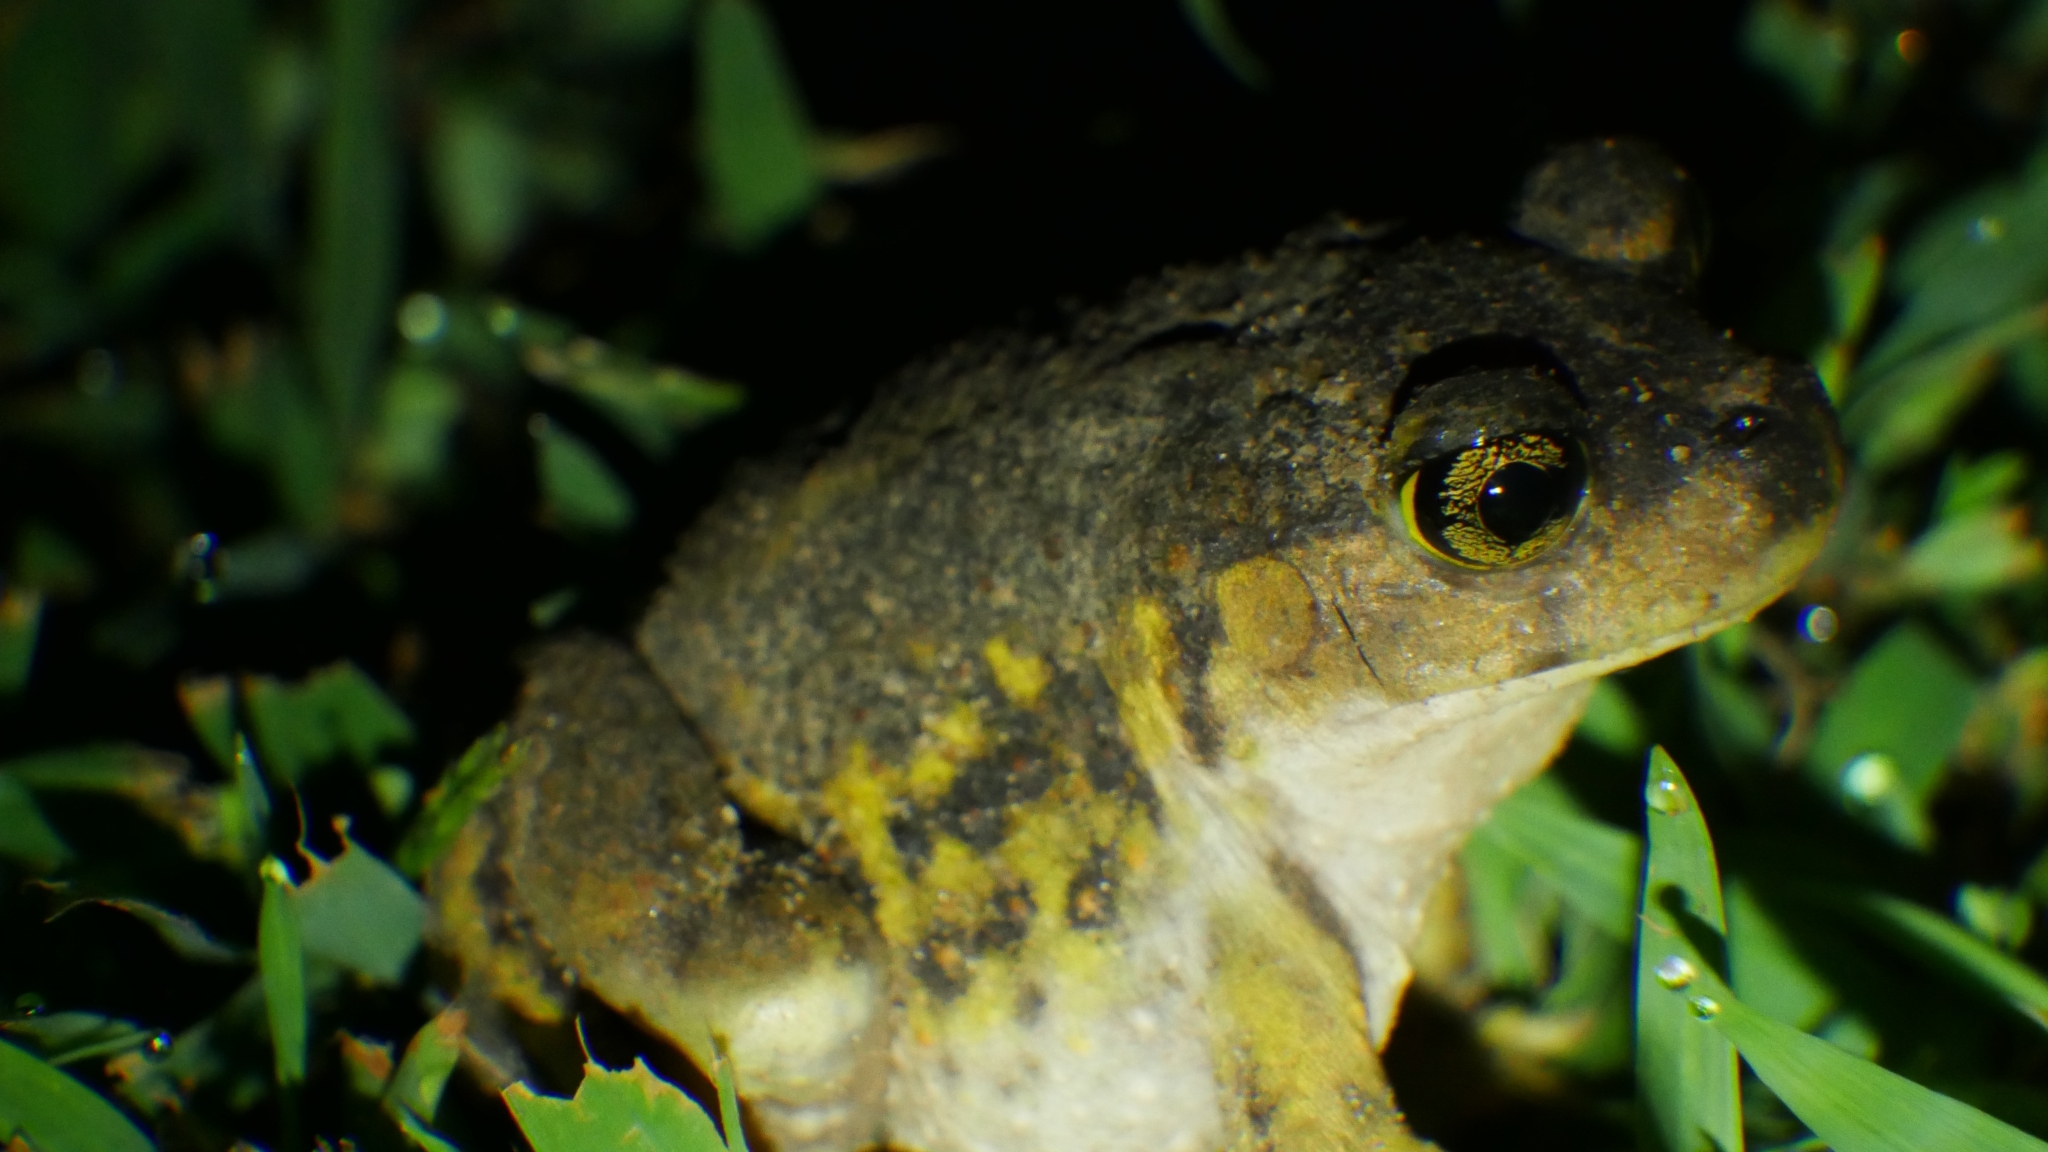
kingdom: Animalia
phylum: Chordata
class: Amphibia
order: Anura
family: Scaphiopodidae
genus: Scaphiopus
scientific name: Scaphiopus holbrookii
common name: Eastern spadefoot toad
